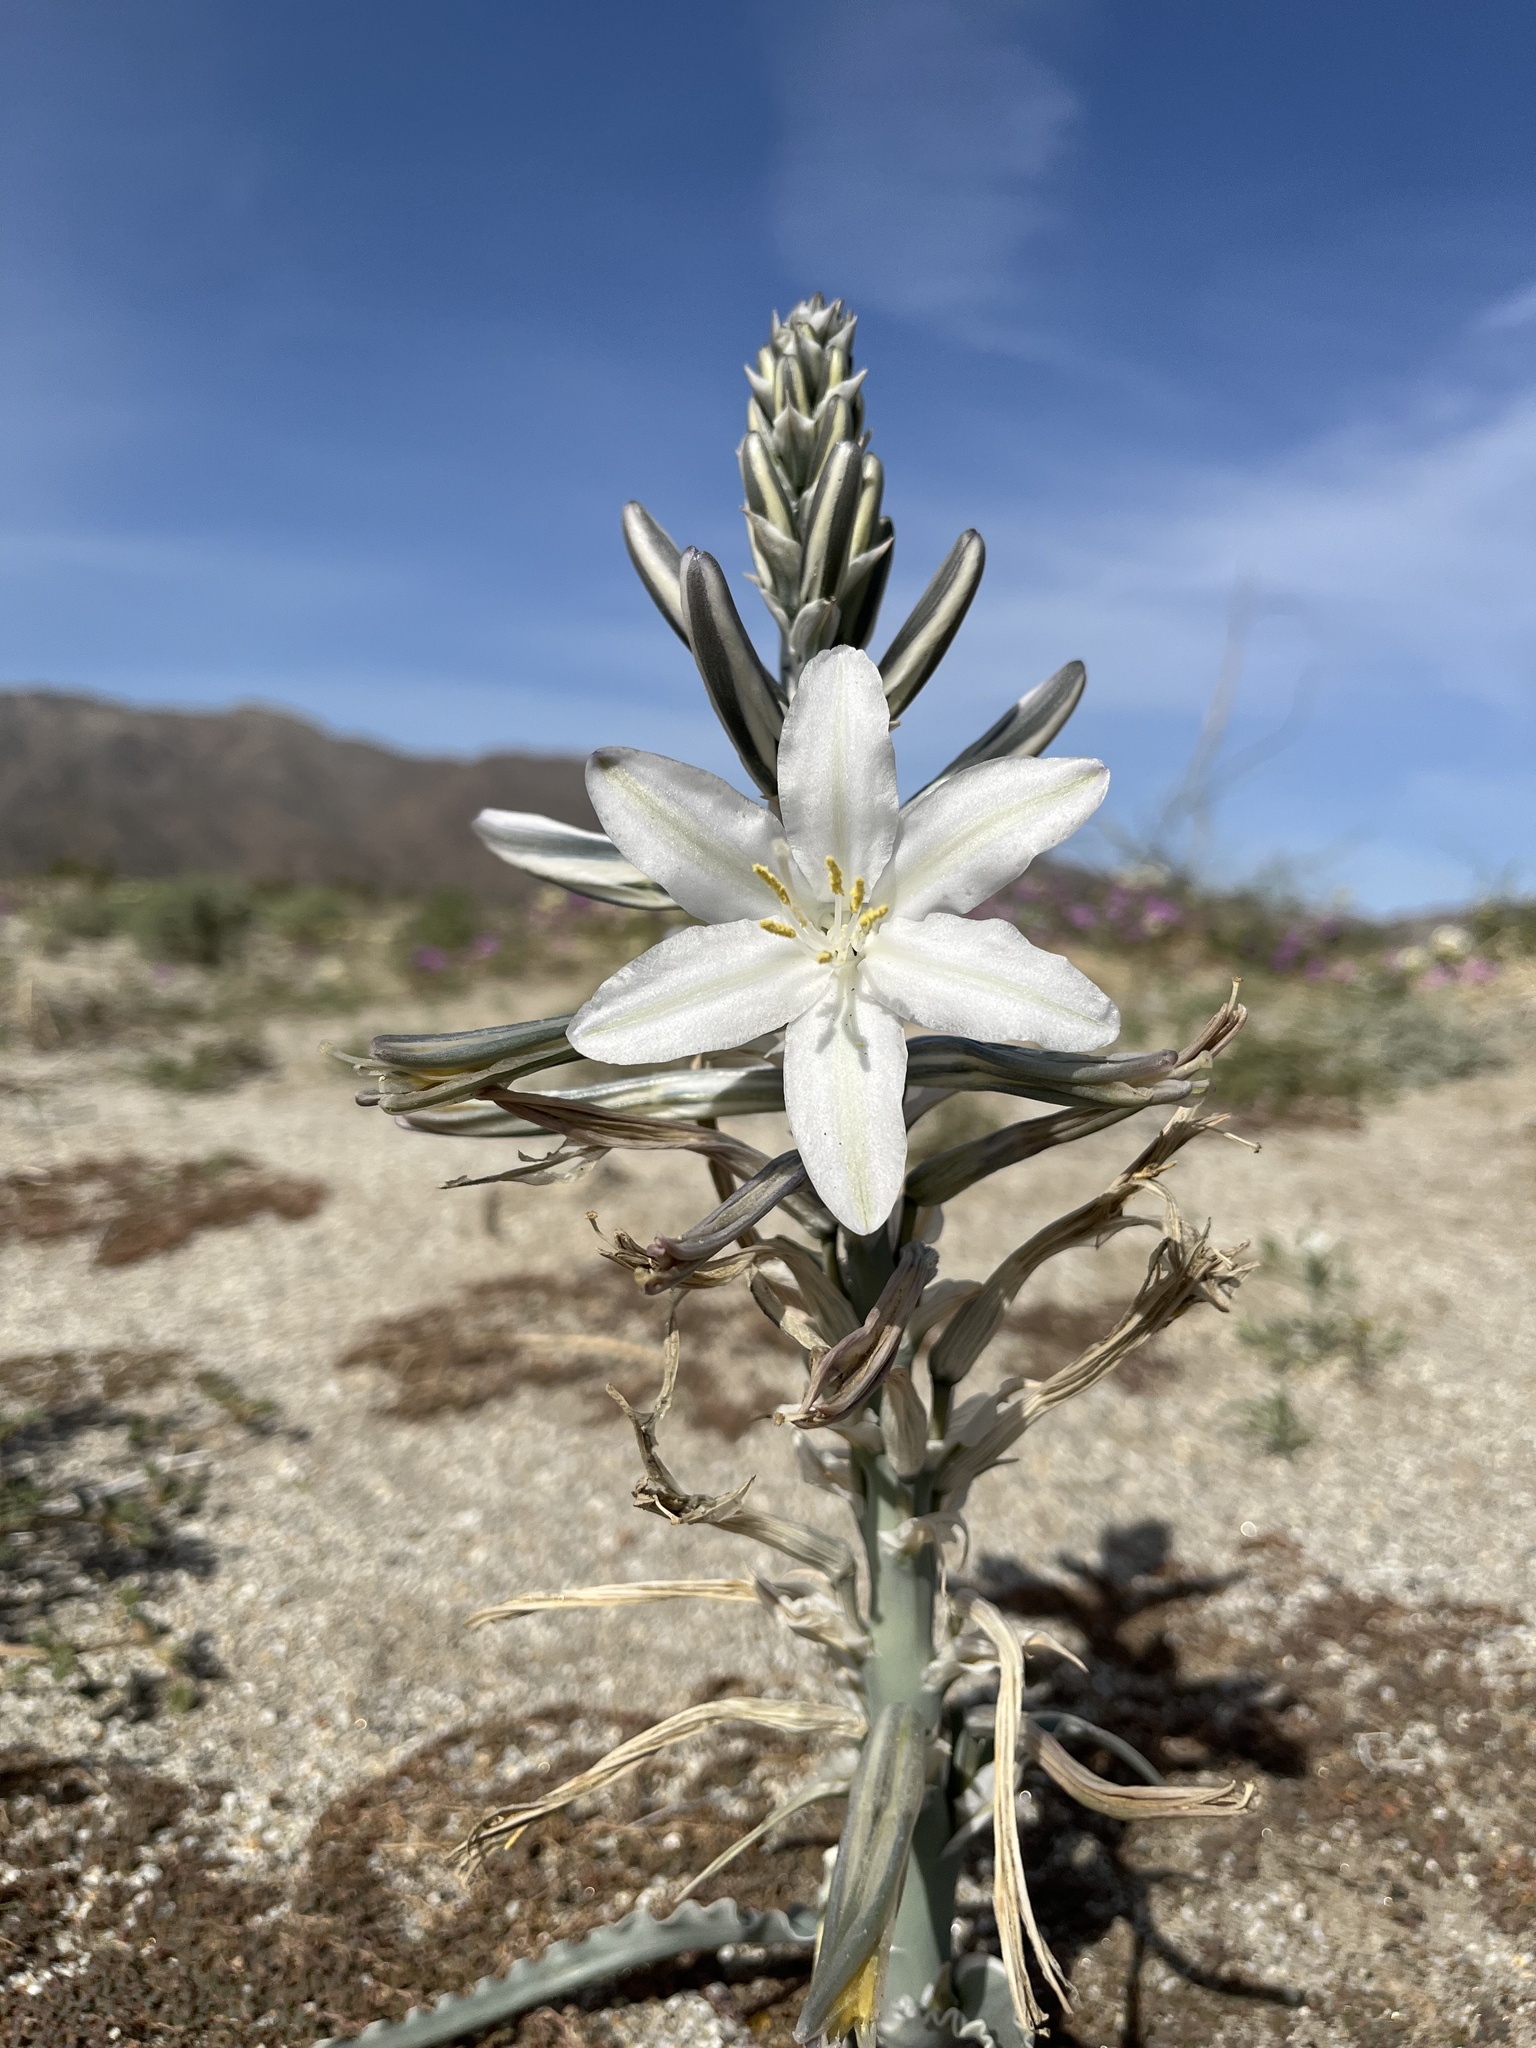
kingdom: Plantae
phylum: Tracheophyta
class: Liliopsida
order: Asparagales
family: Asparagaceae
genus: Hesperocallis
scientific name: Hesperocallis undulata
